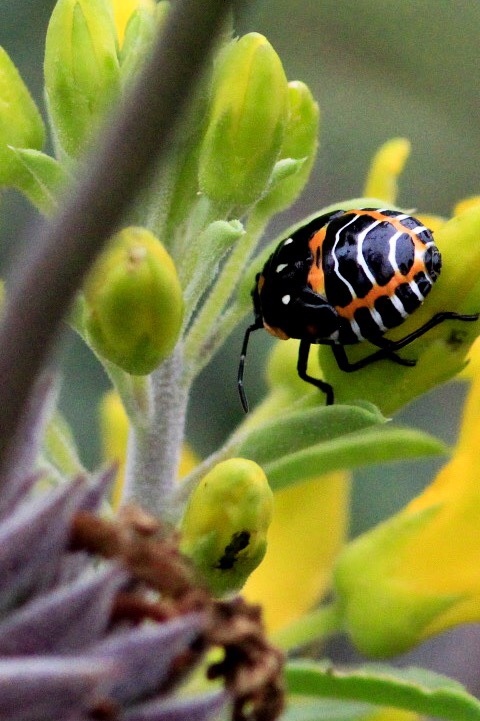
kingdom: Animalia
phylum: Arthropoda
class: Insecta
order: Hemiptera
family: Pentatomidae
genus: Murgantia
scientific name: Murgantia histrionica
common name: Harlequin bug
